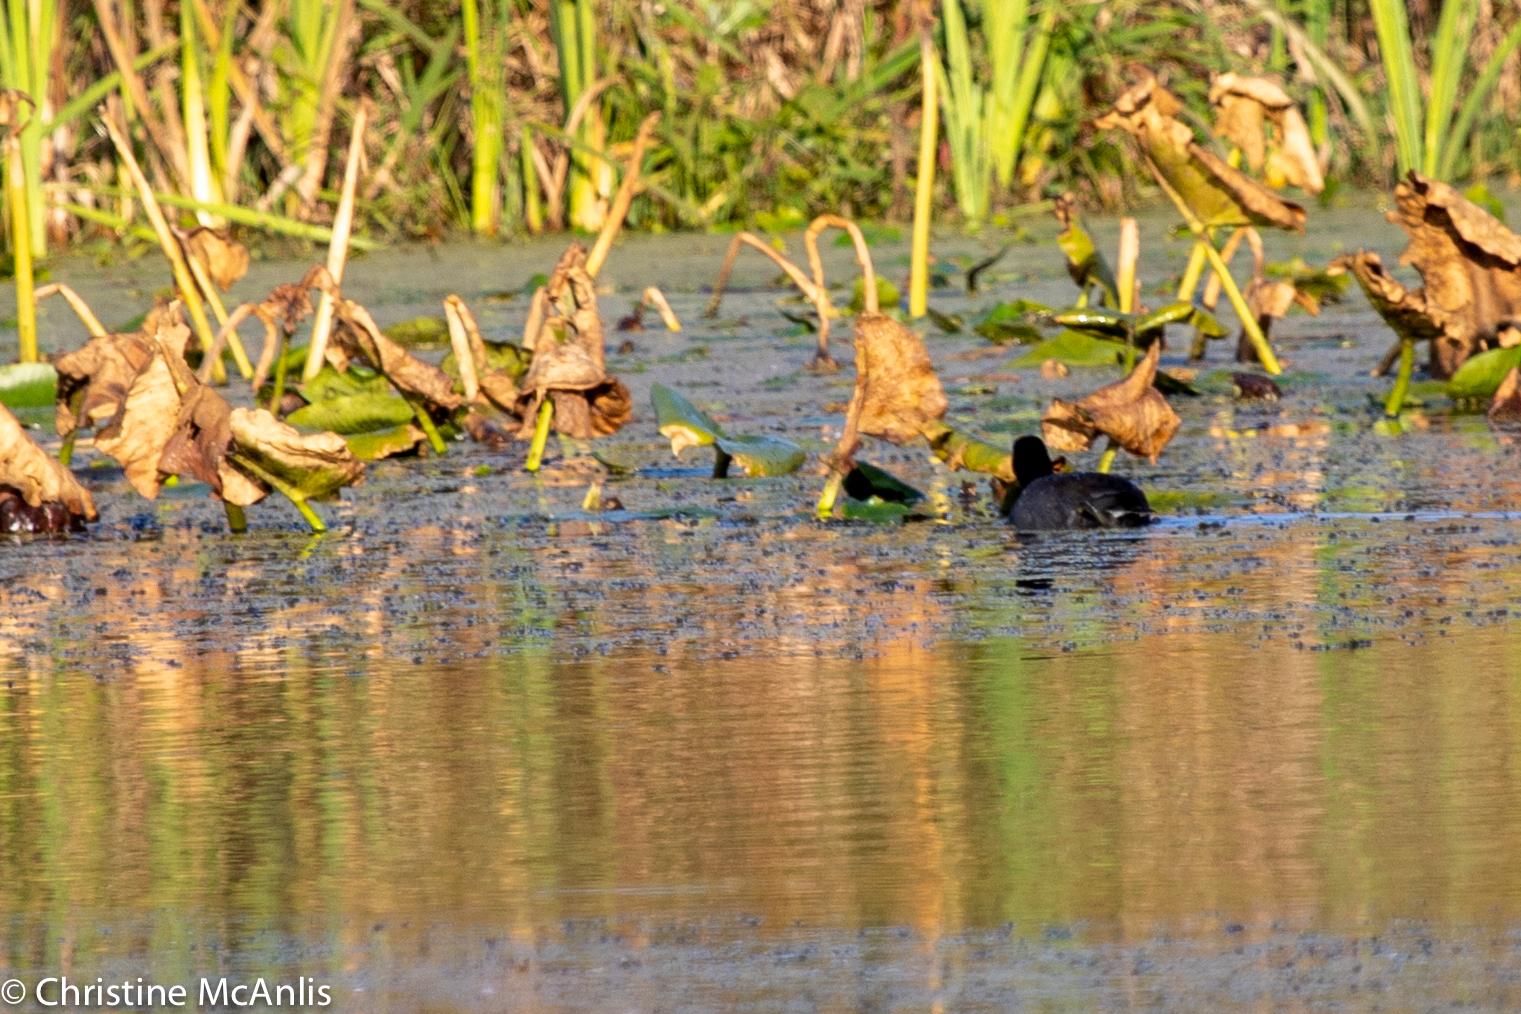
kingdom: Animalia
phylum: Chordata
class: Aves
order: Gruiformes
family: Rallidae
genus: Fulica
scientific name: Fulica americana
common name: American coot
